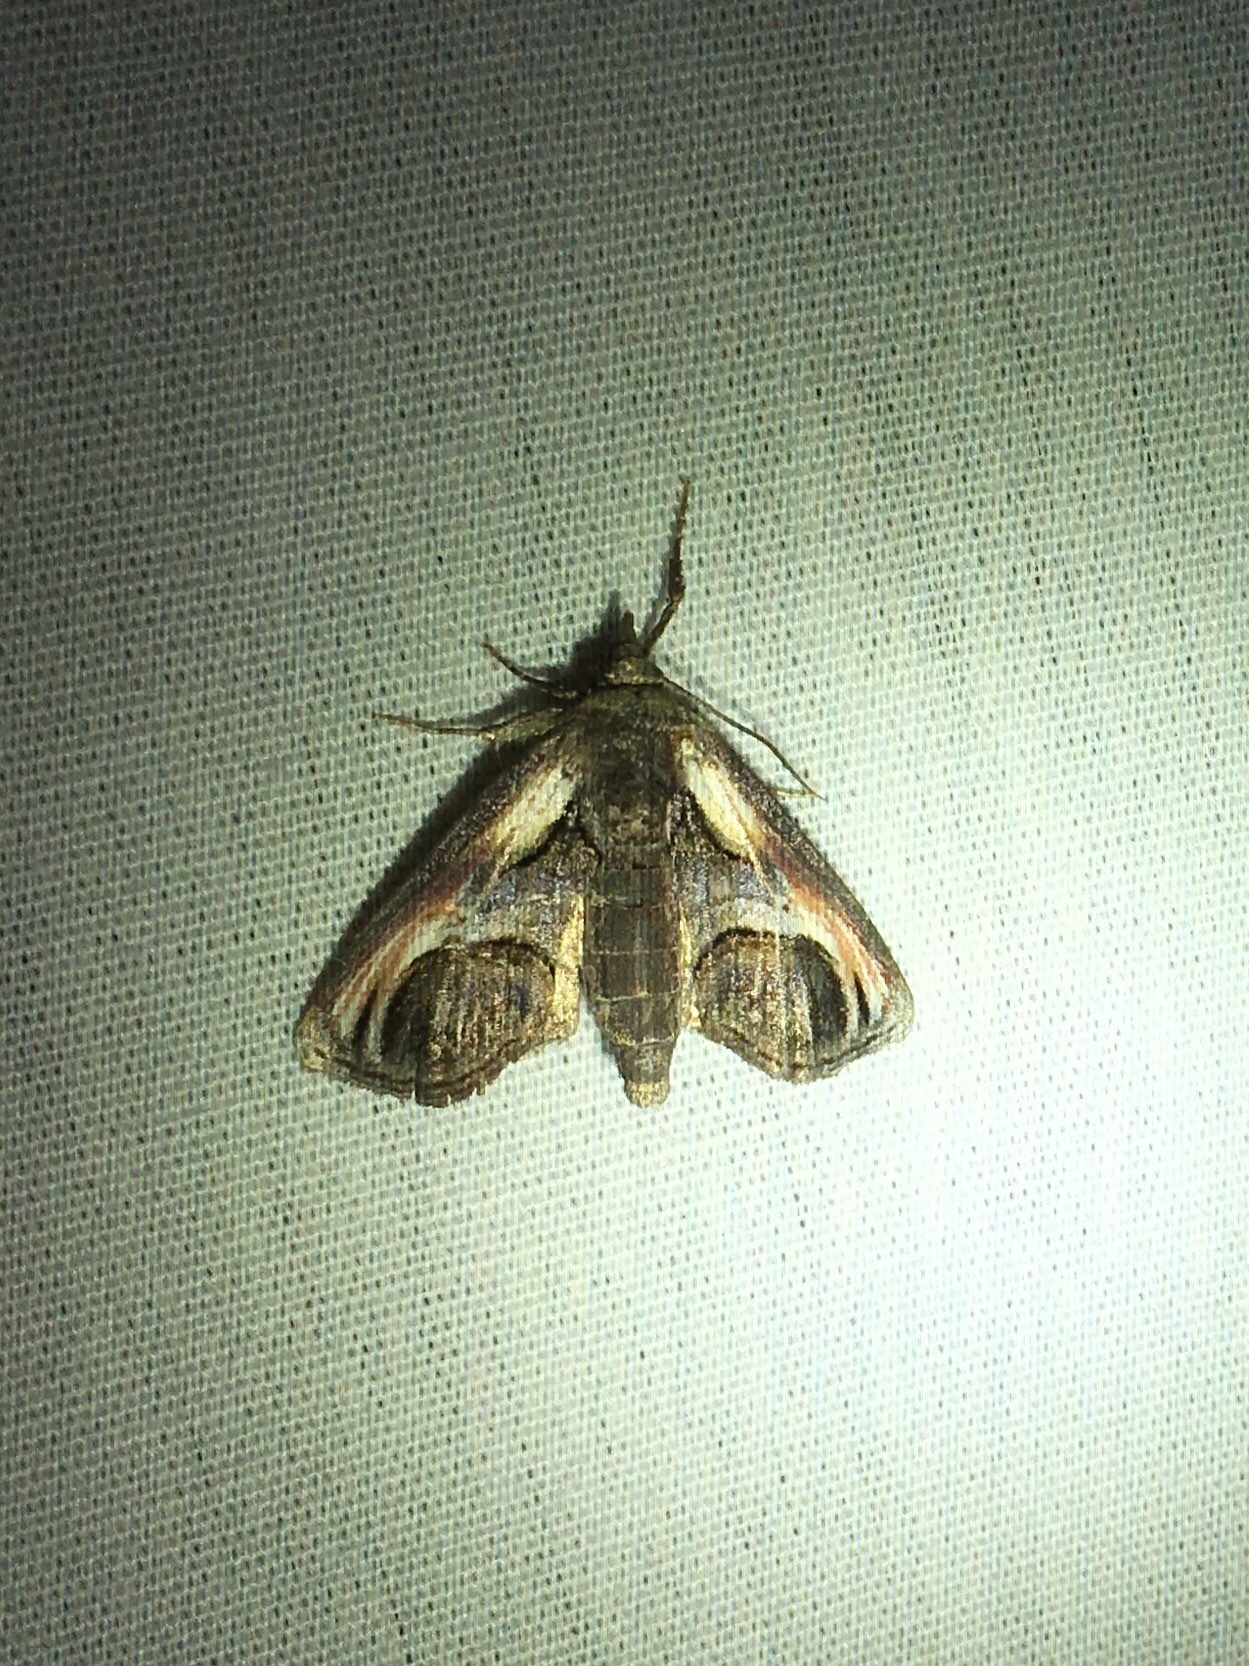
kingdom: Animalia
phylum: Arthropoda
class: Insecta
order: Lepidoptera
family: Euteliidae
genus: Paectes
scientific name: Paectes oculatrix
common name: Eyed paectes moth
